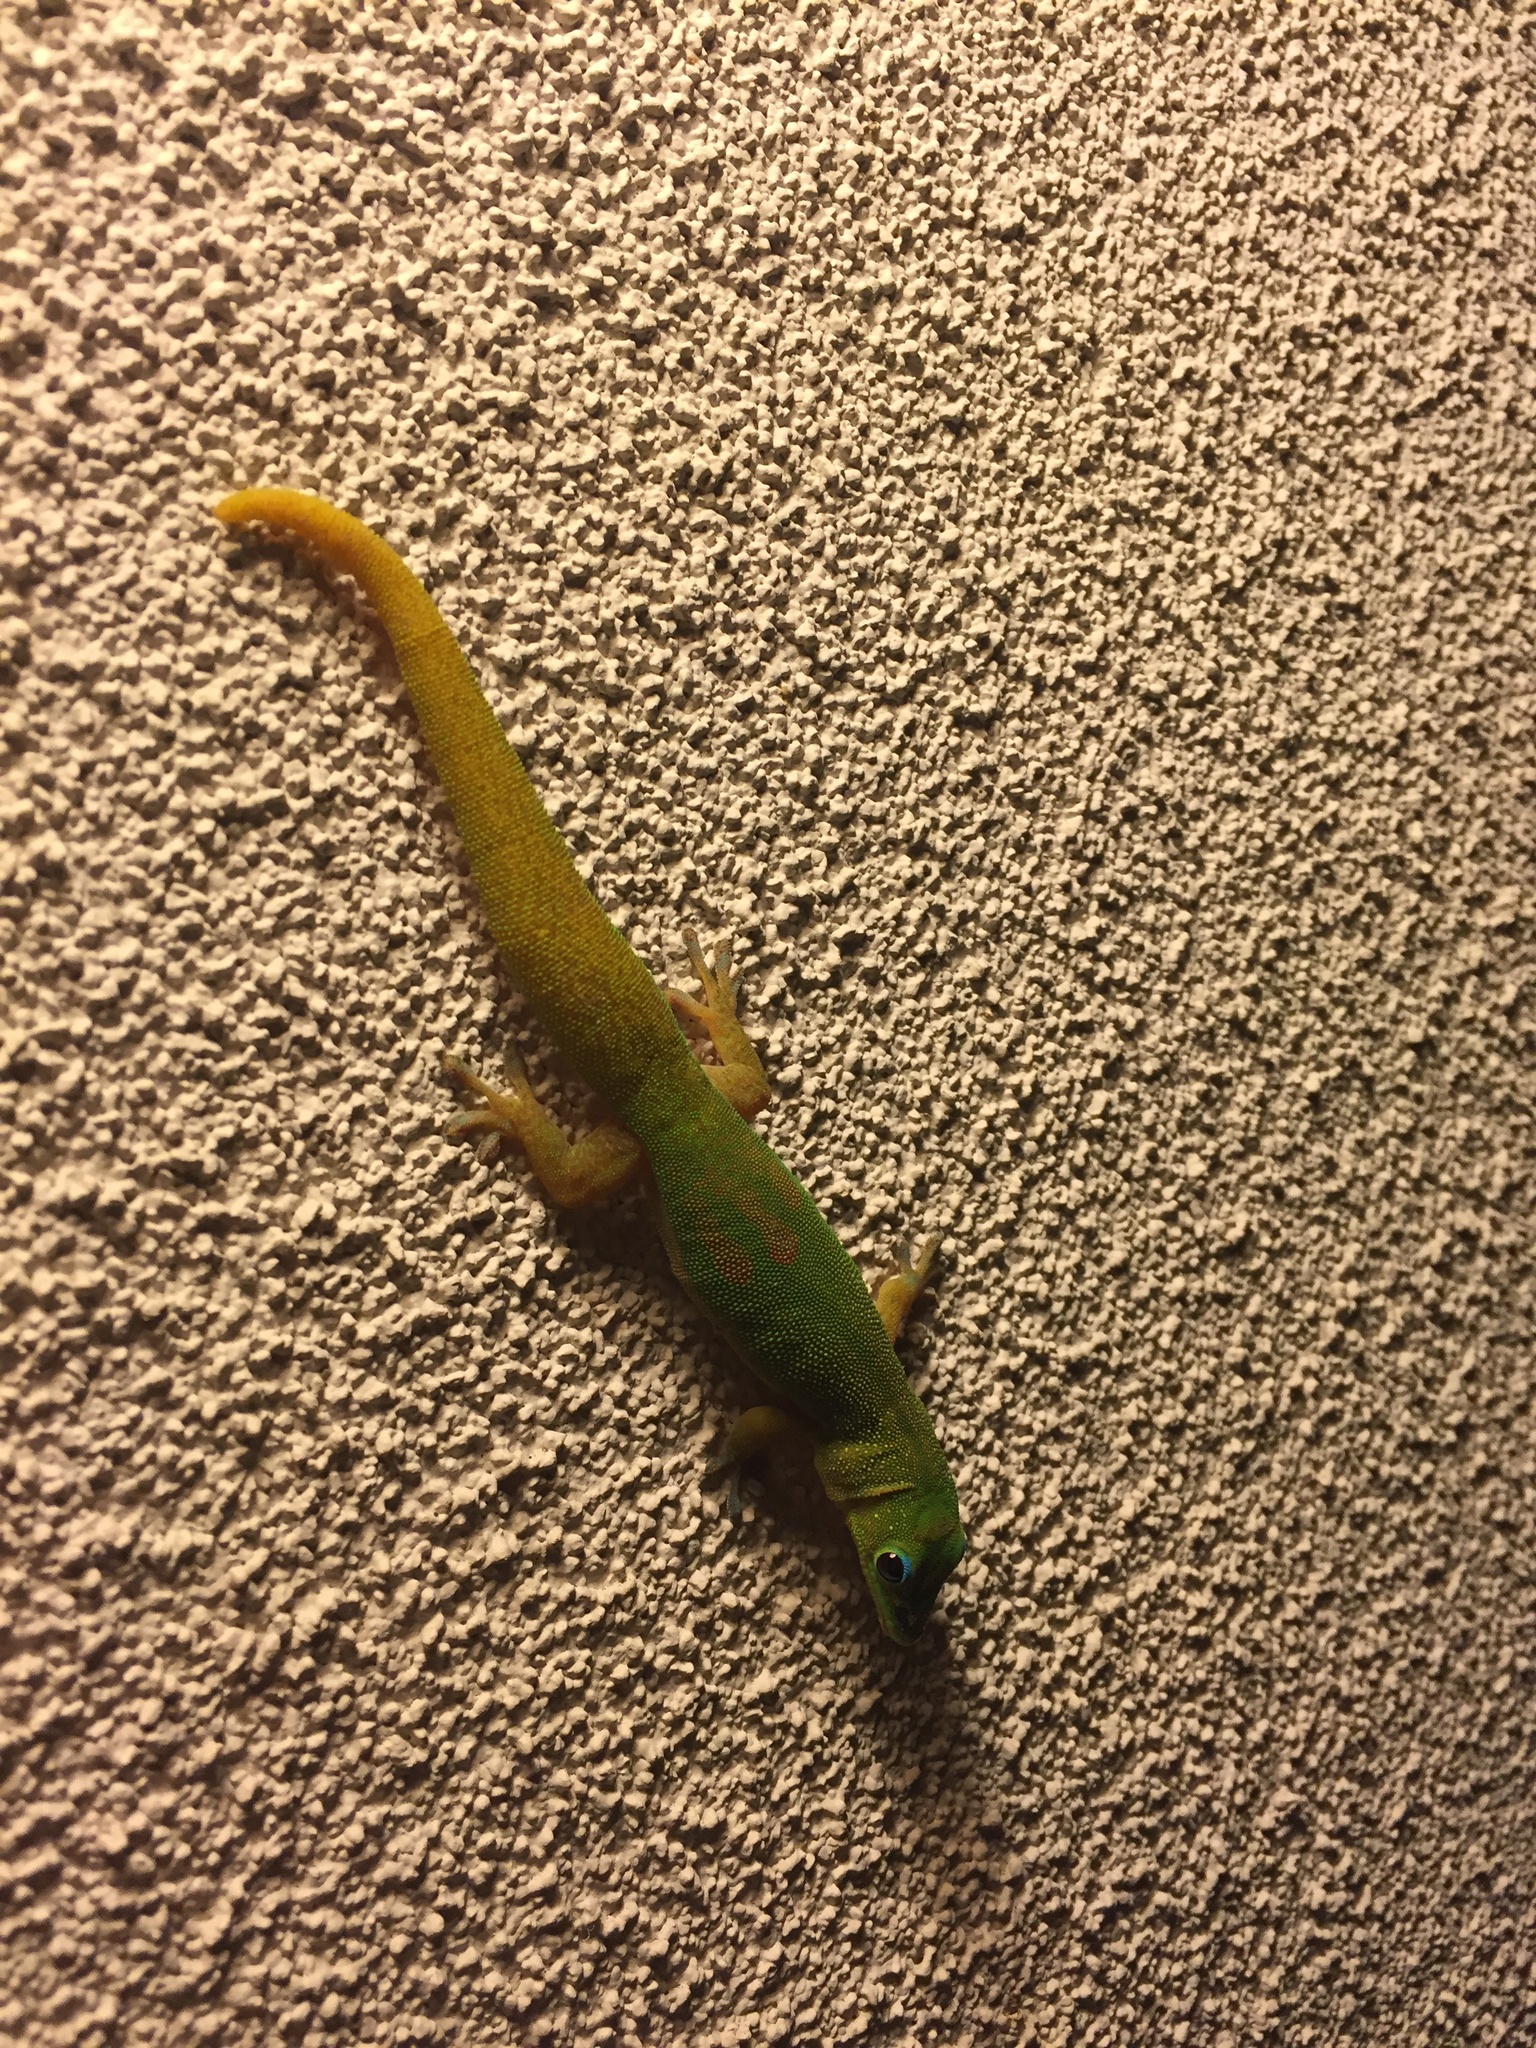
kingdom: Animalia
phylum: Chordata
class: Squamata
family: Gekkonidae
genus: Phelsuma
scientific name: Phelsuma laticauda
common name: Gold dust day gecko
